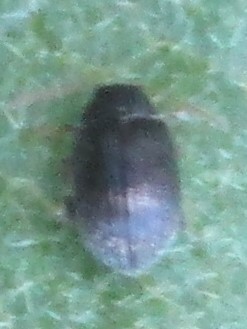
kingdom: Animalia
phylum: Arthropoda
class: Insecta
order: Coleoptera
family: Chrysomelidae
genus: Epitrix
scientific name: Epitrix fuscula
